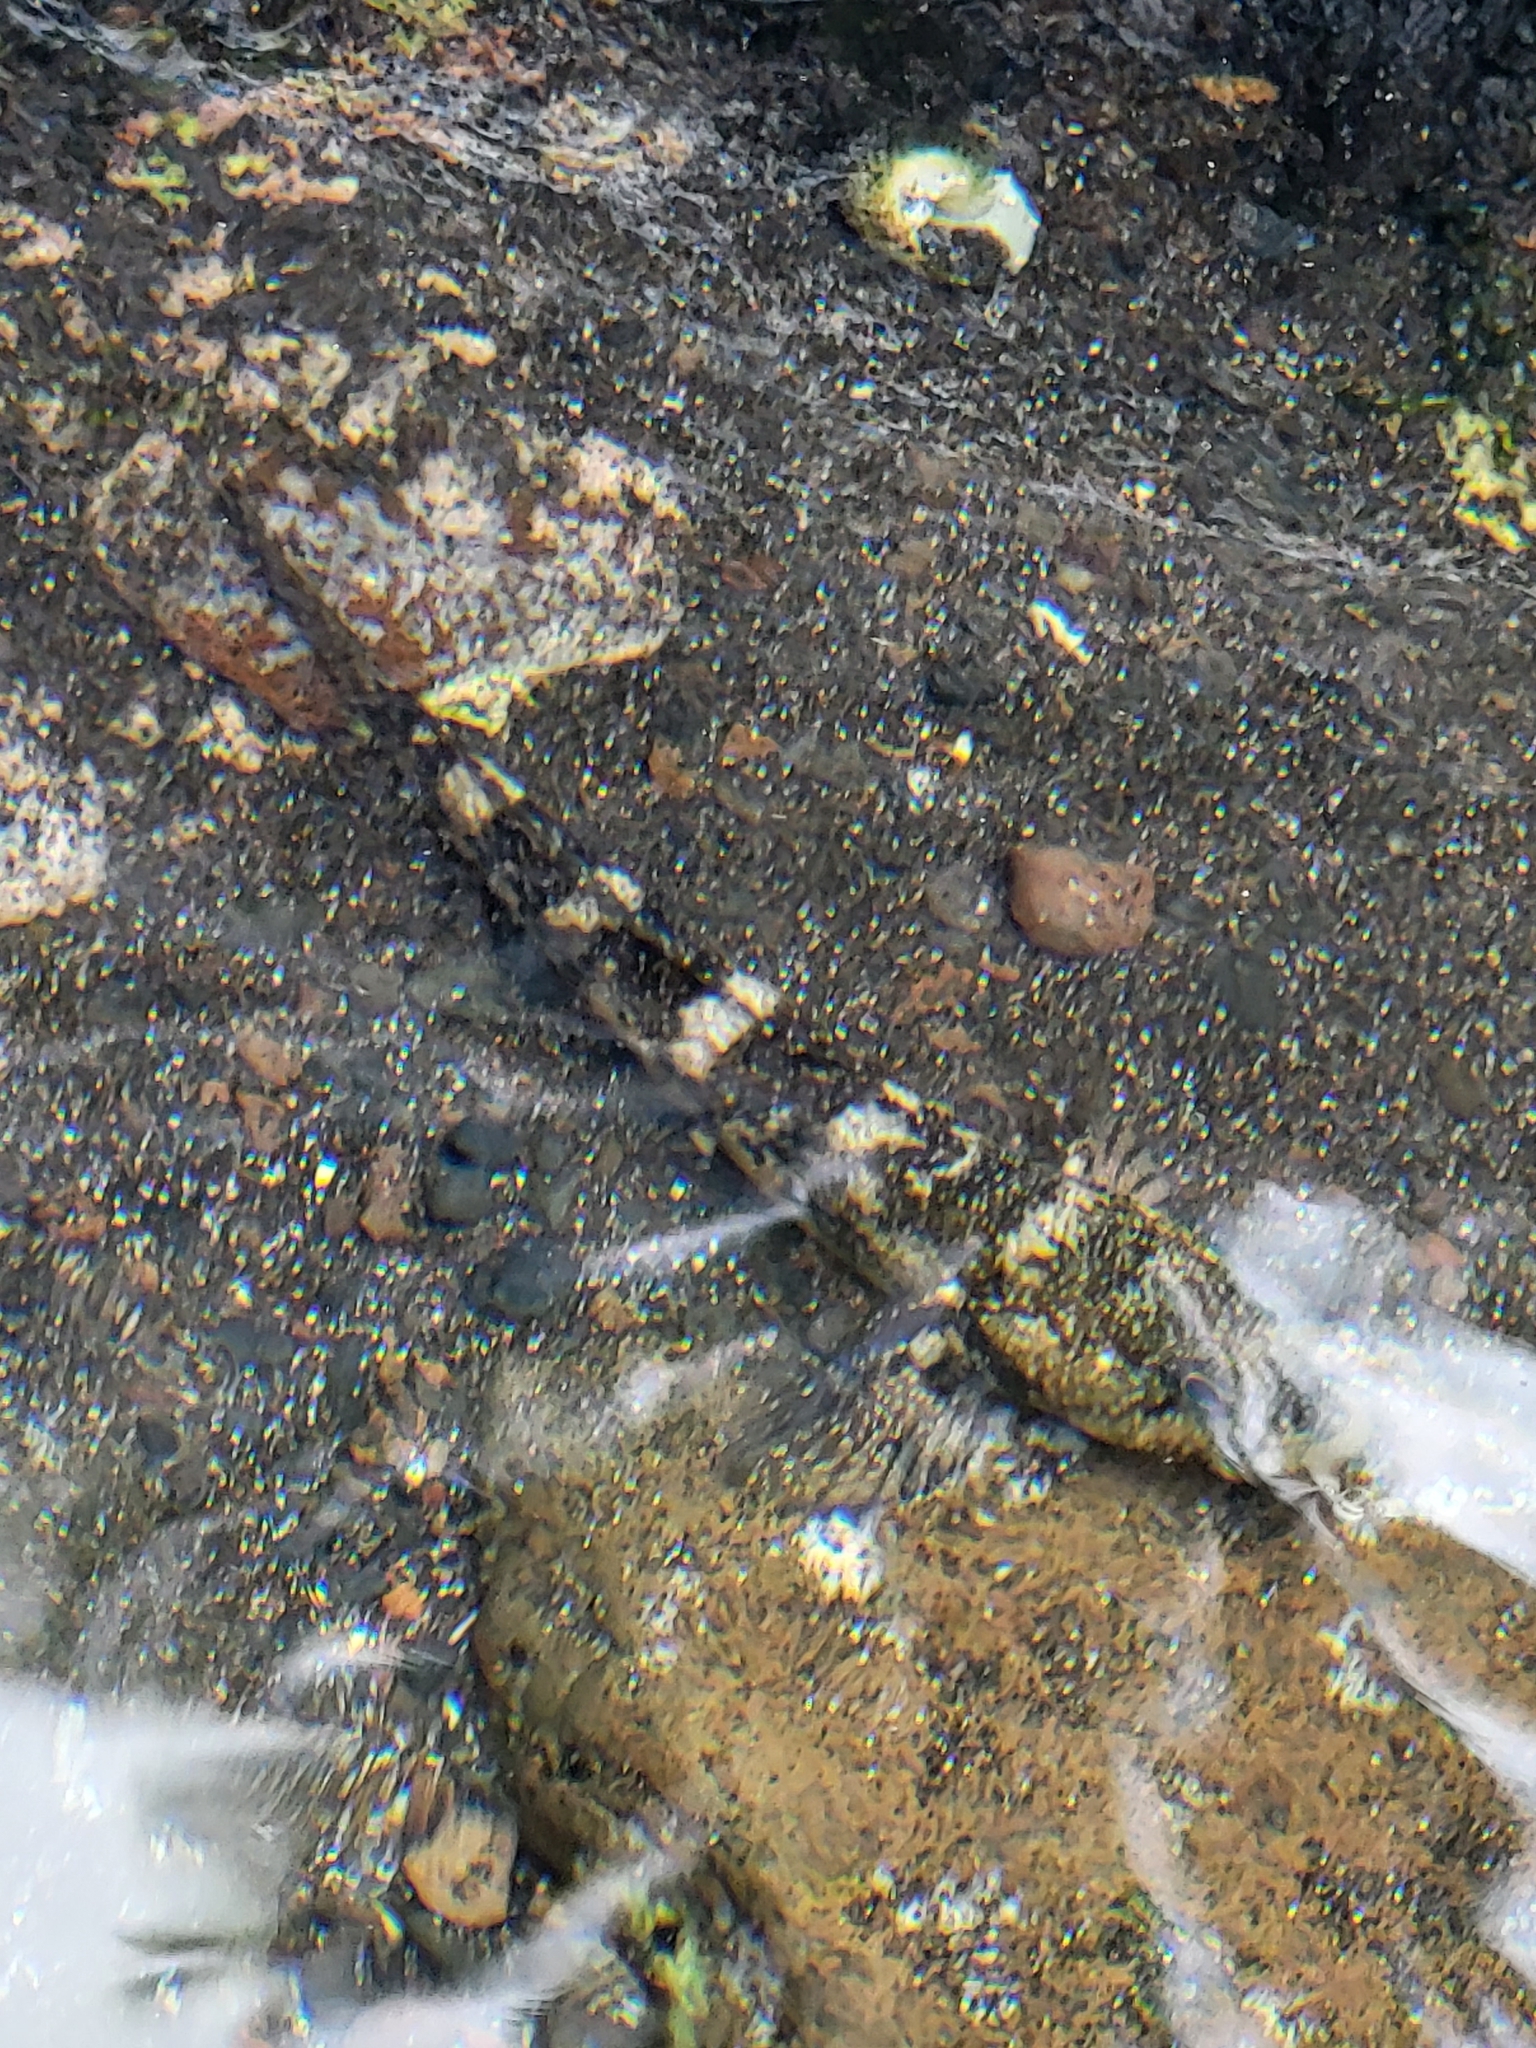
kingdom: Animalia
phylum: Chordata
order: Perciformes
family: Gobiidae
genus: Mauligobius
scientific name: Mauligobius maderensis
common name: Rock goby
